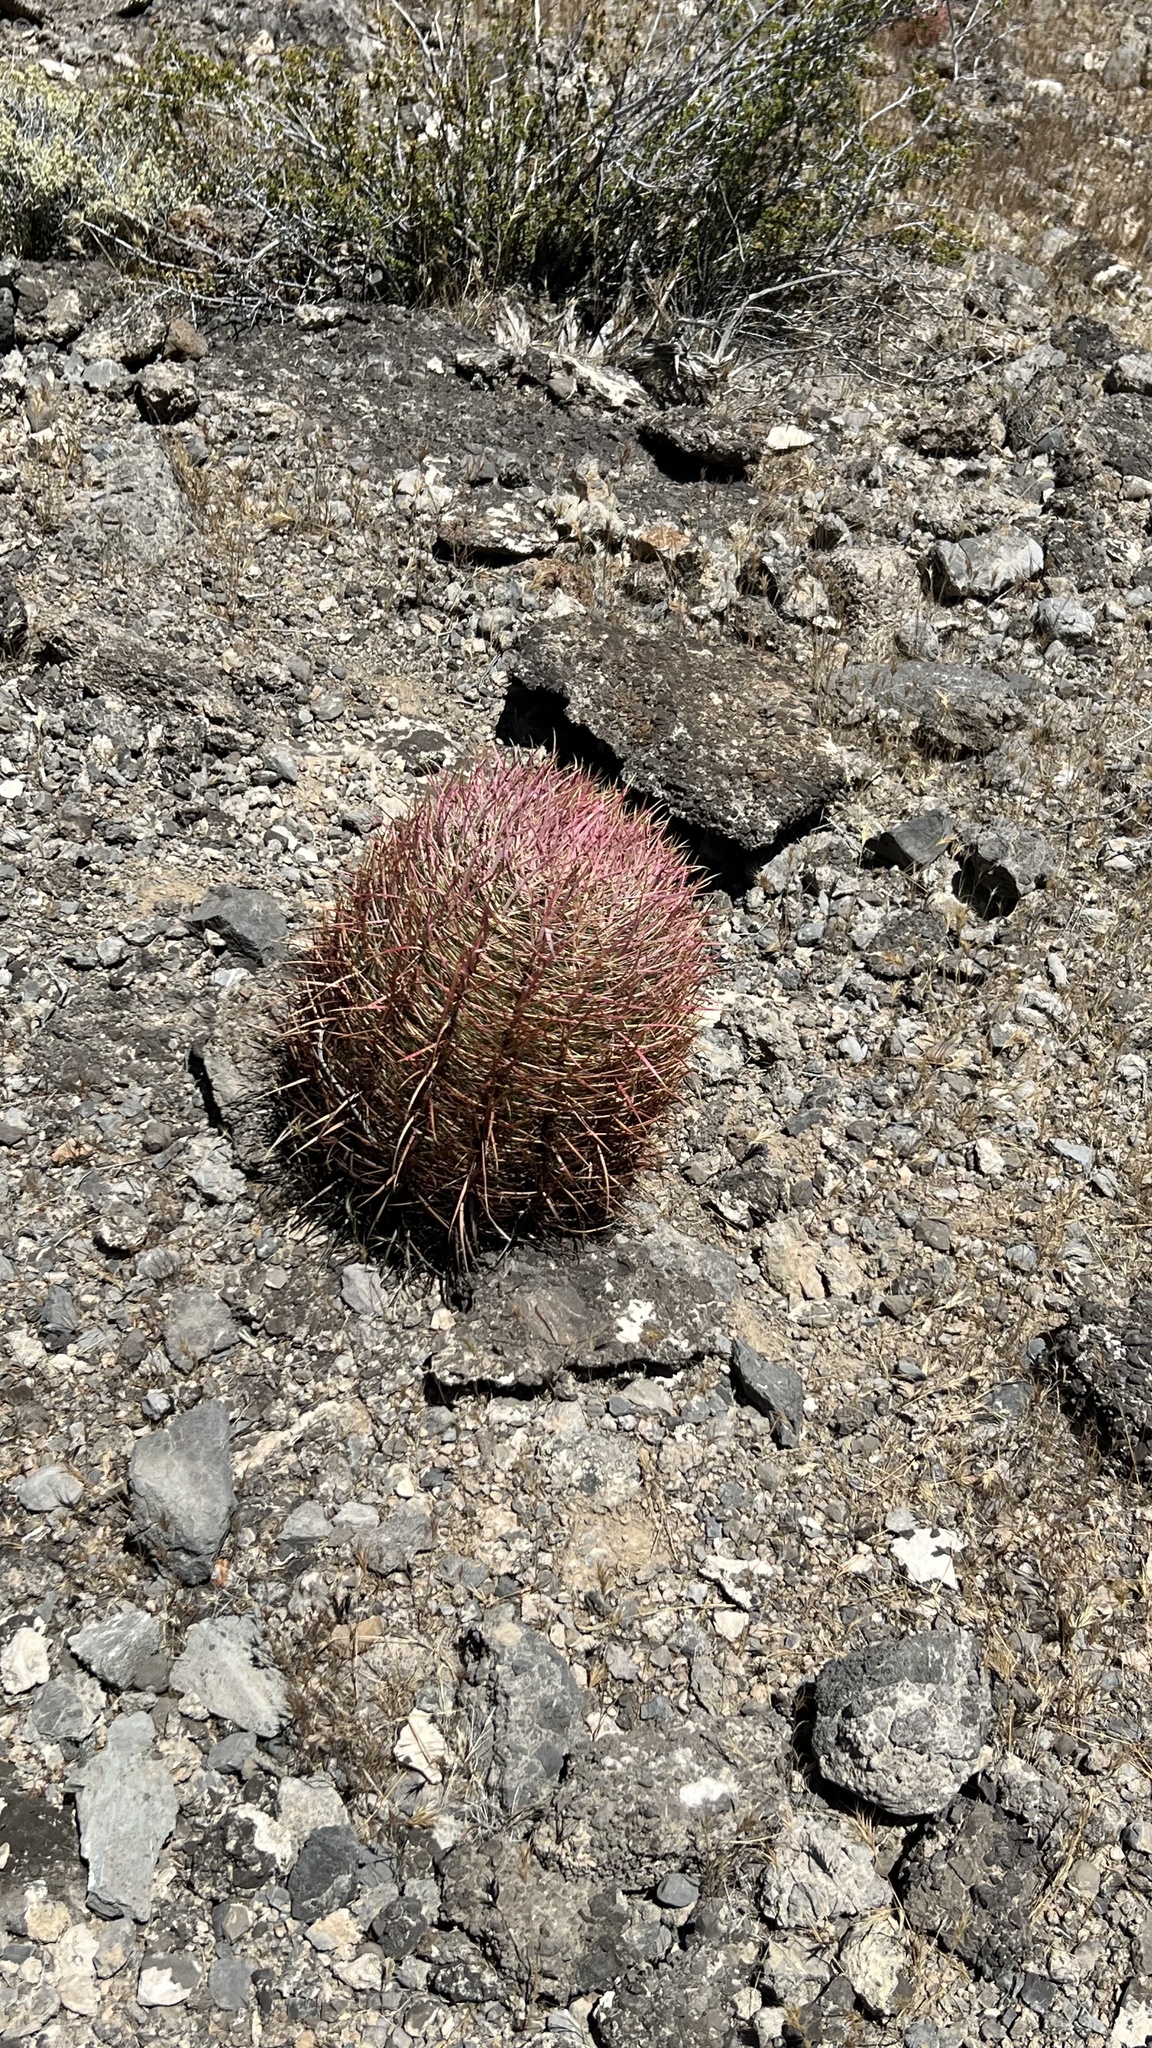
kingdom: Plantae
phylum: Tracheophyta
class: Magnoliopsida
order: Caryophyllales
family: Cactaceae
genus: Ferocactus
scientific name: Ferocactus cylindraceus
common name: California barrel cactus
